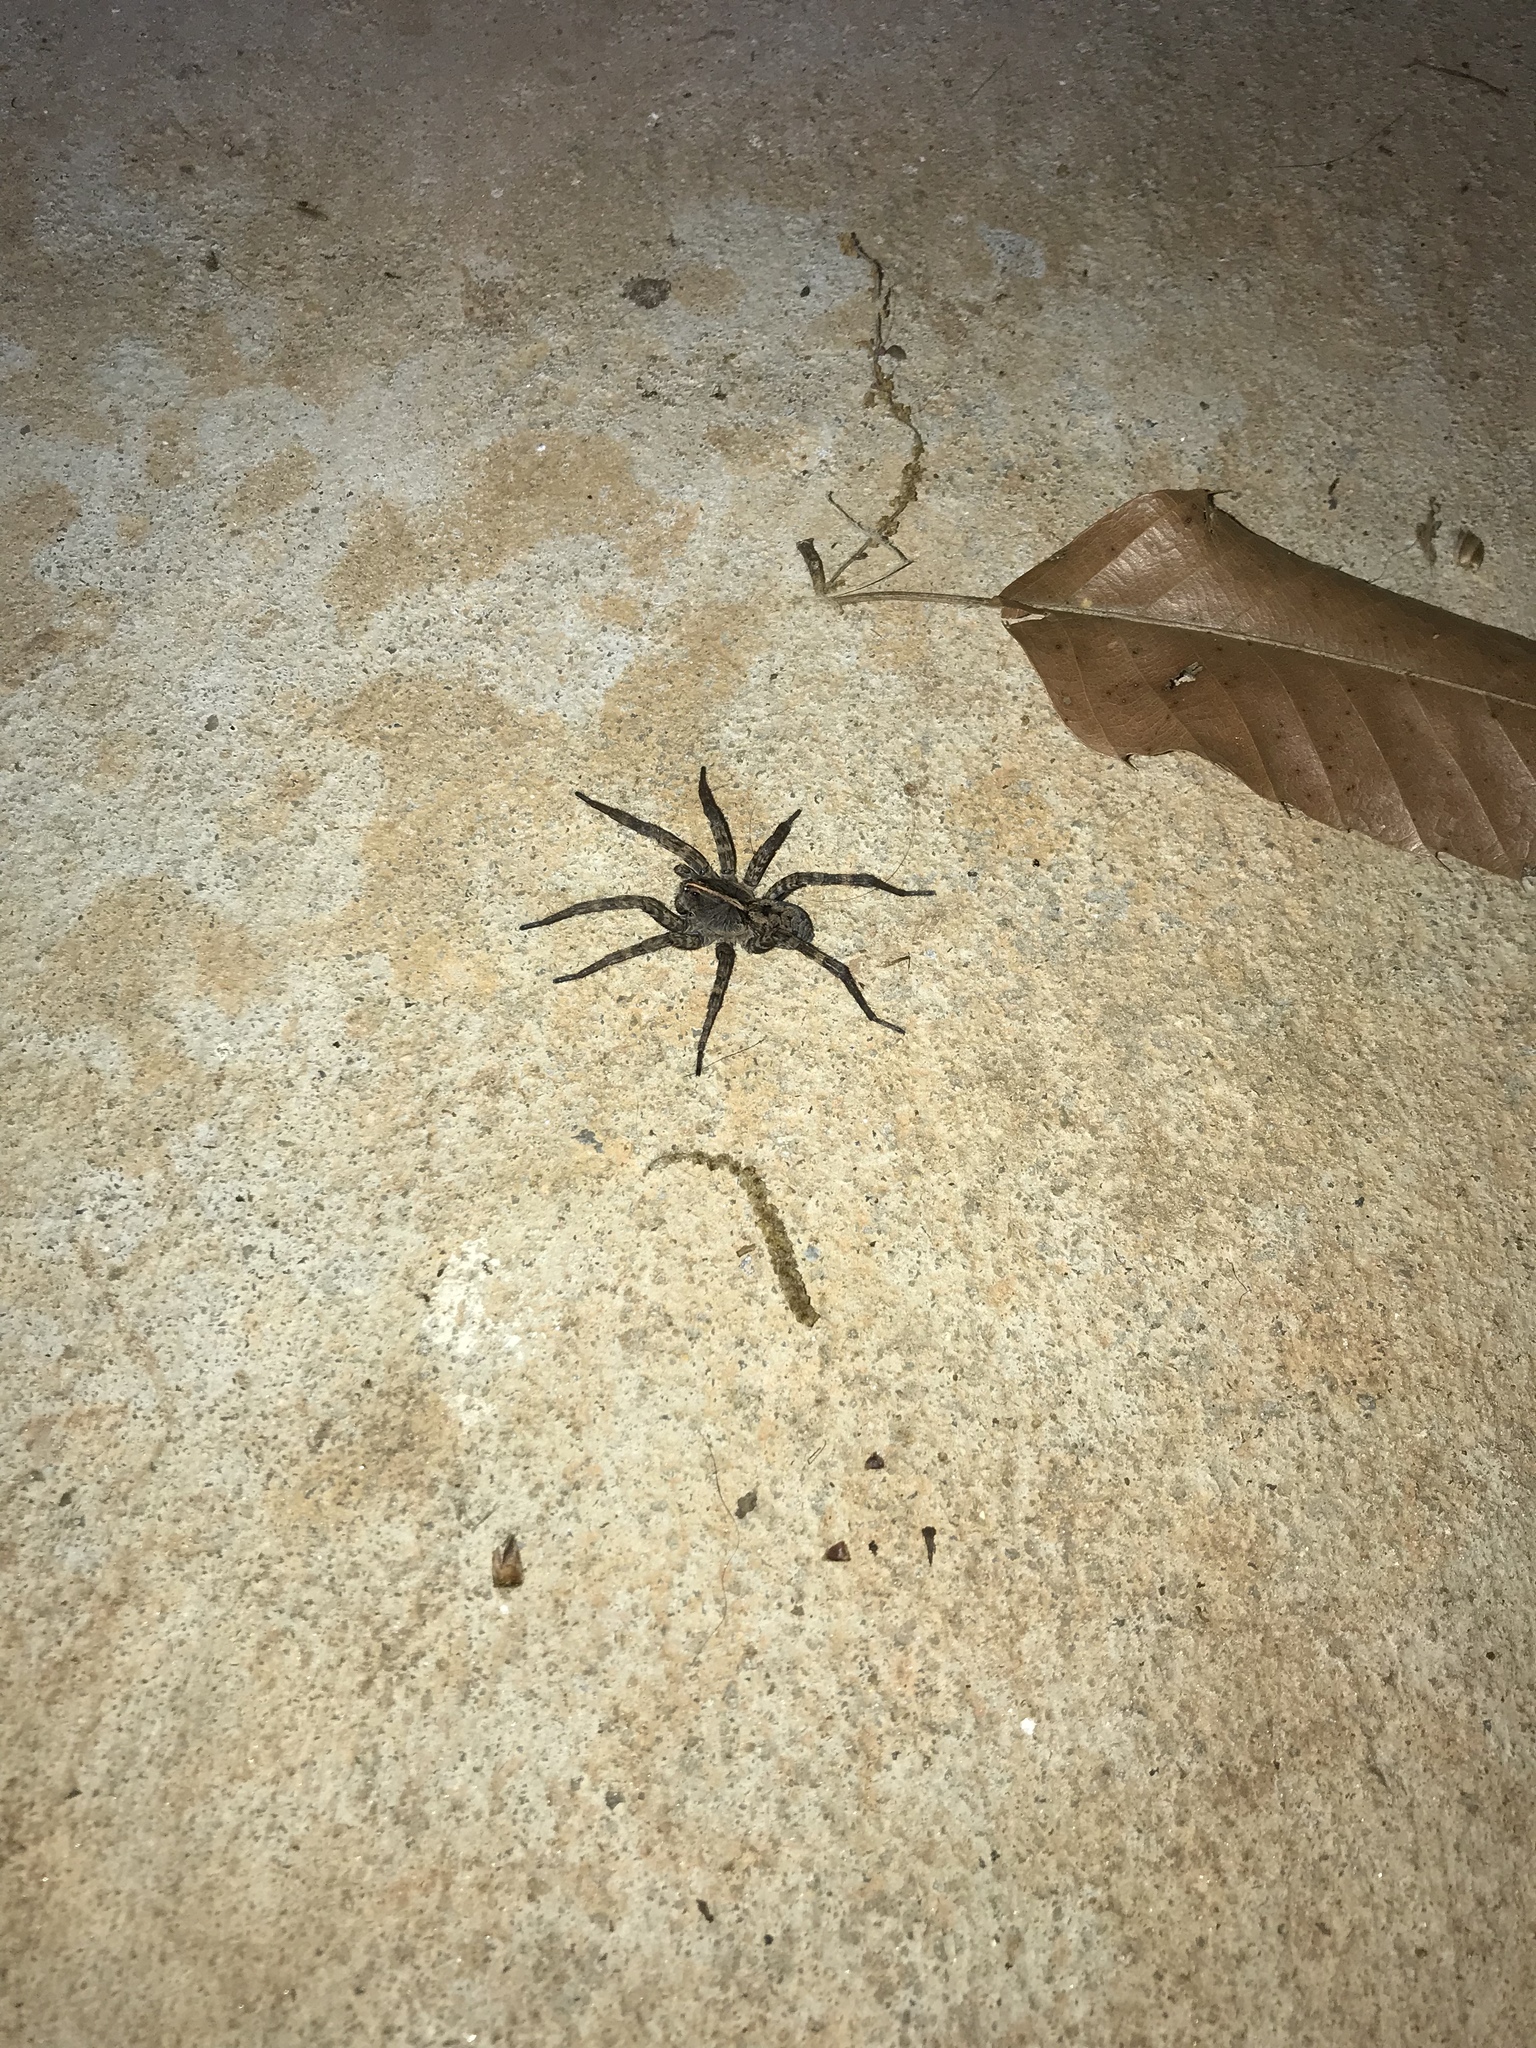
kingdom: Animalia
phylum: Arthropoda
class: Arachnida
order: Araneae
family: Lycosidae
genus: Tigrosa
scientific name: Tigrosa georgicola
